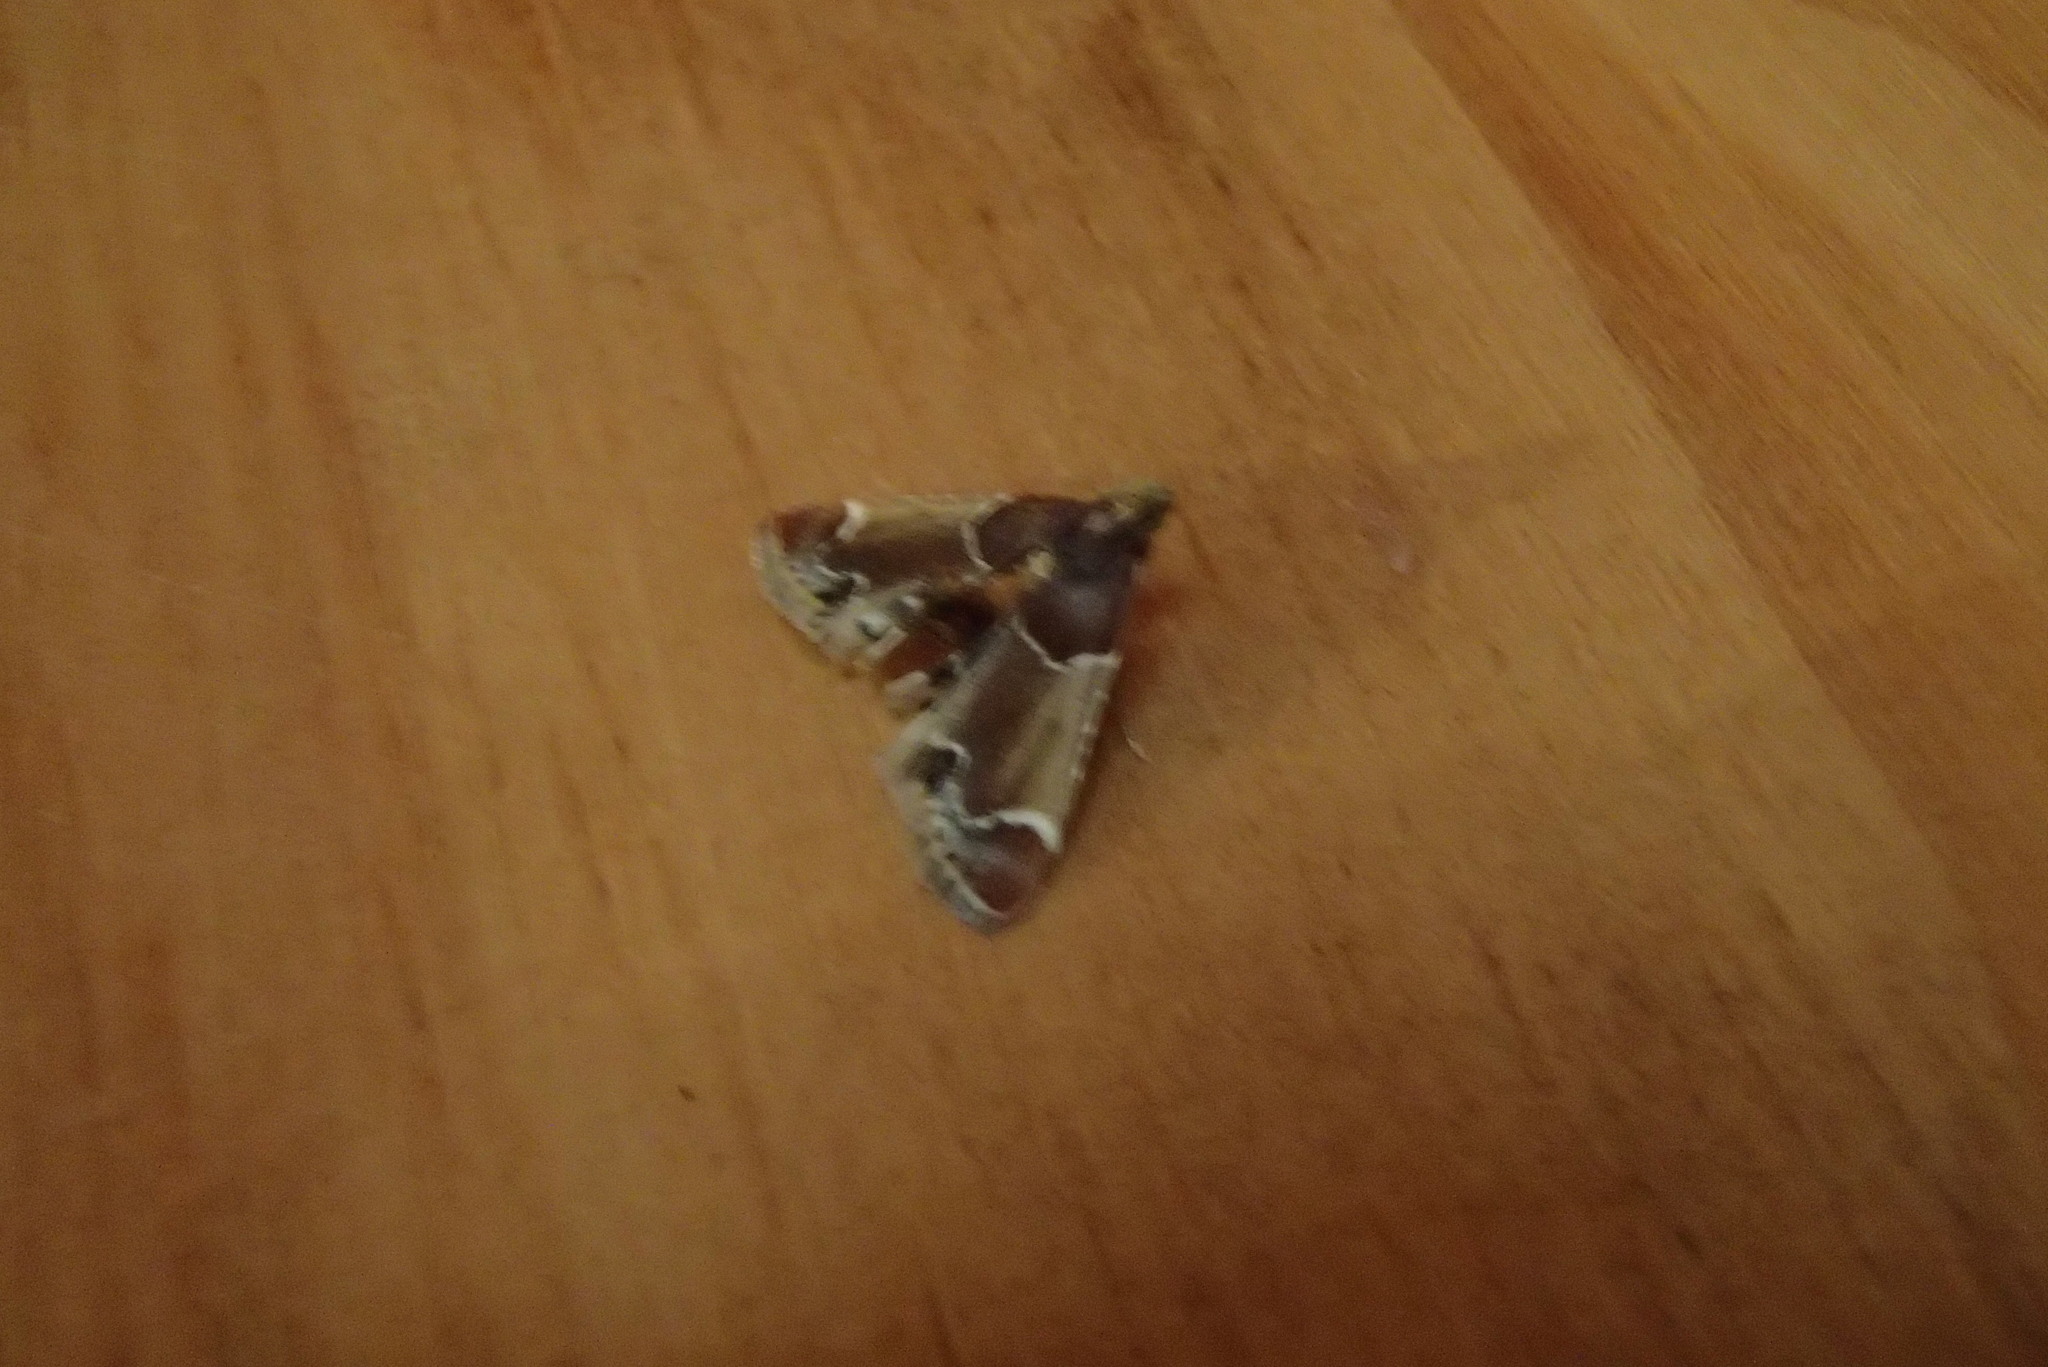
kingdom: Animalia
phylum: Arthropoda
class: Insecta
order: Lepidoptera
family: Pyralidae
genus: Pyralis
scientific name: Pyralis farinalis
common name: Meal moth
